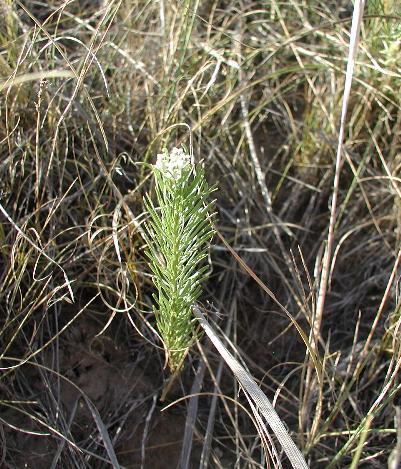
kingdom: Plantae
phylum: Tracheophyta
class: Magnoliopsida
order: Gentianales
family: Apocynaceae
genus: Asclepias
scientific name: Asclepias pumila
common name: Dwarf milkweed
